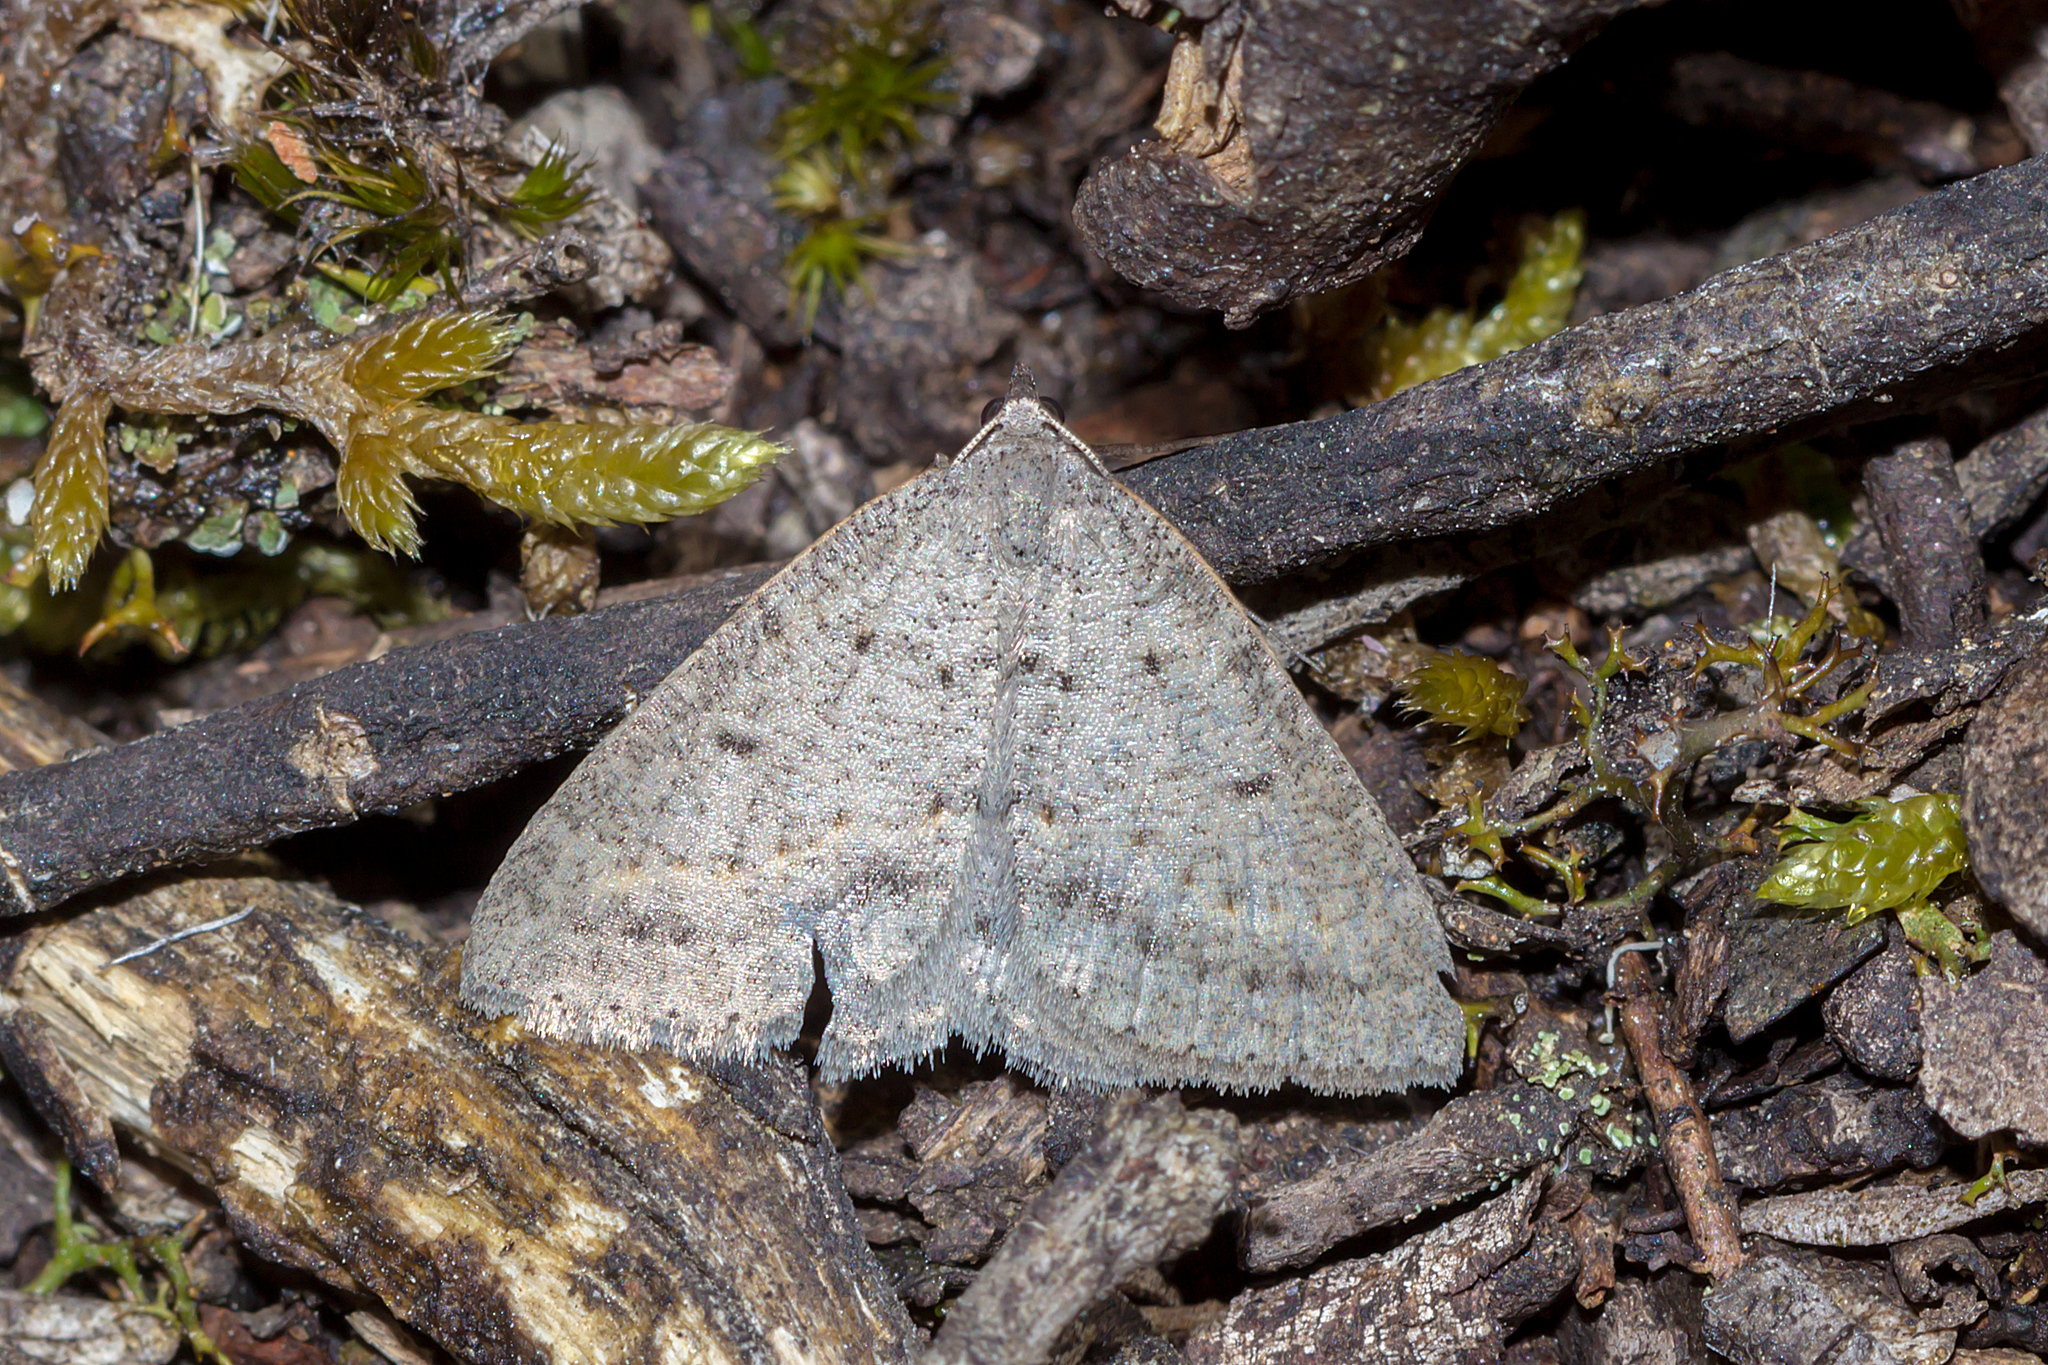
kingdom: Animalia
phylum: Arthropoda
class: Insecta
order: Lepidoptera
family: Geometridae
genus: Taxeotis
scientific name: Taxeotis reserata
